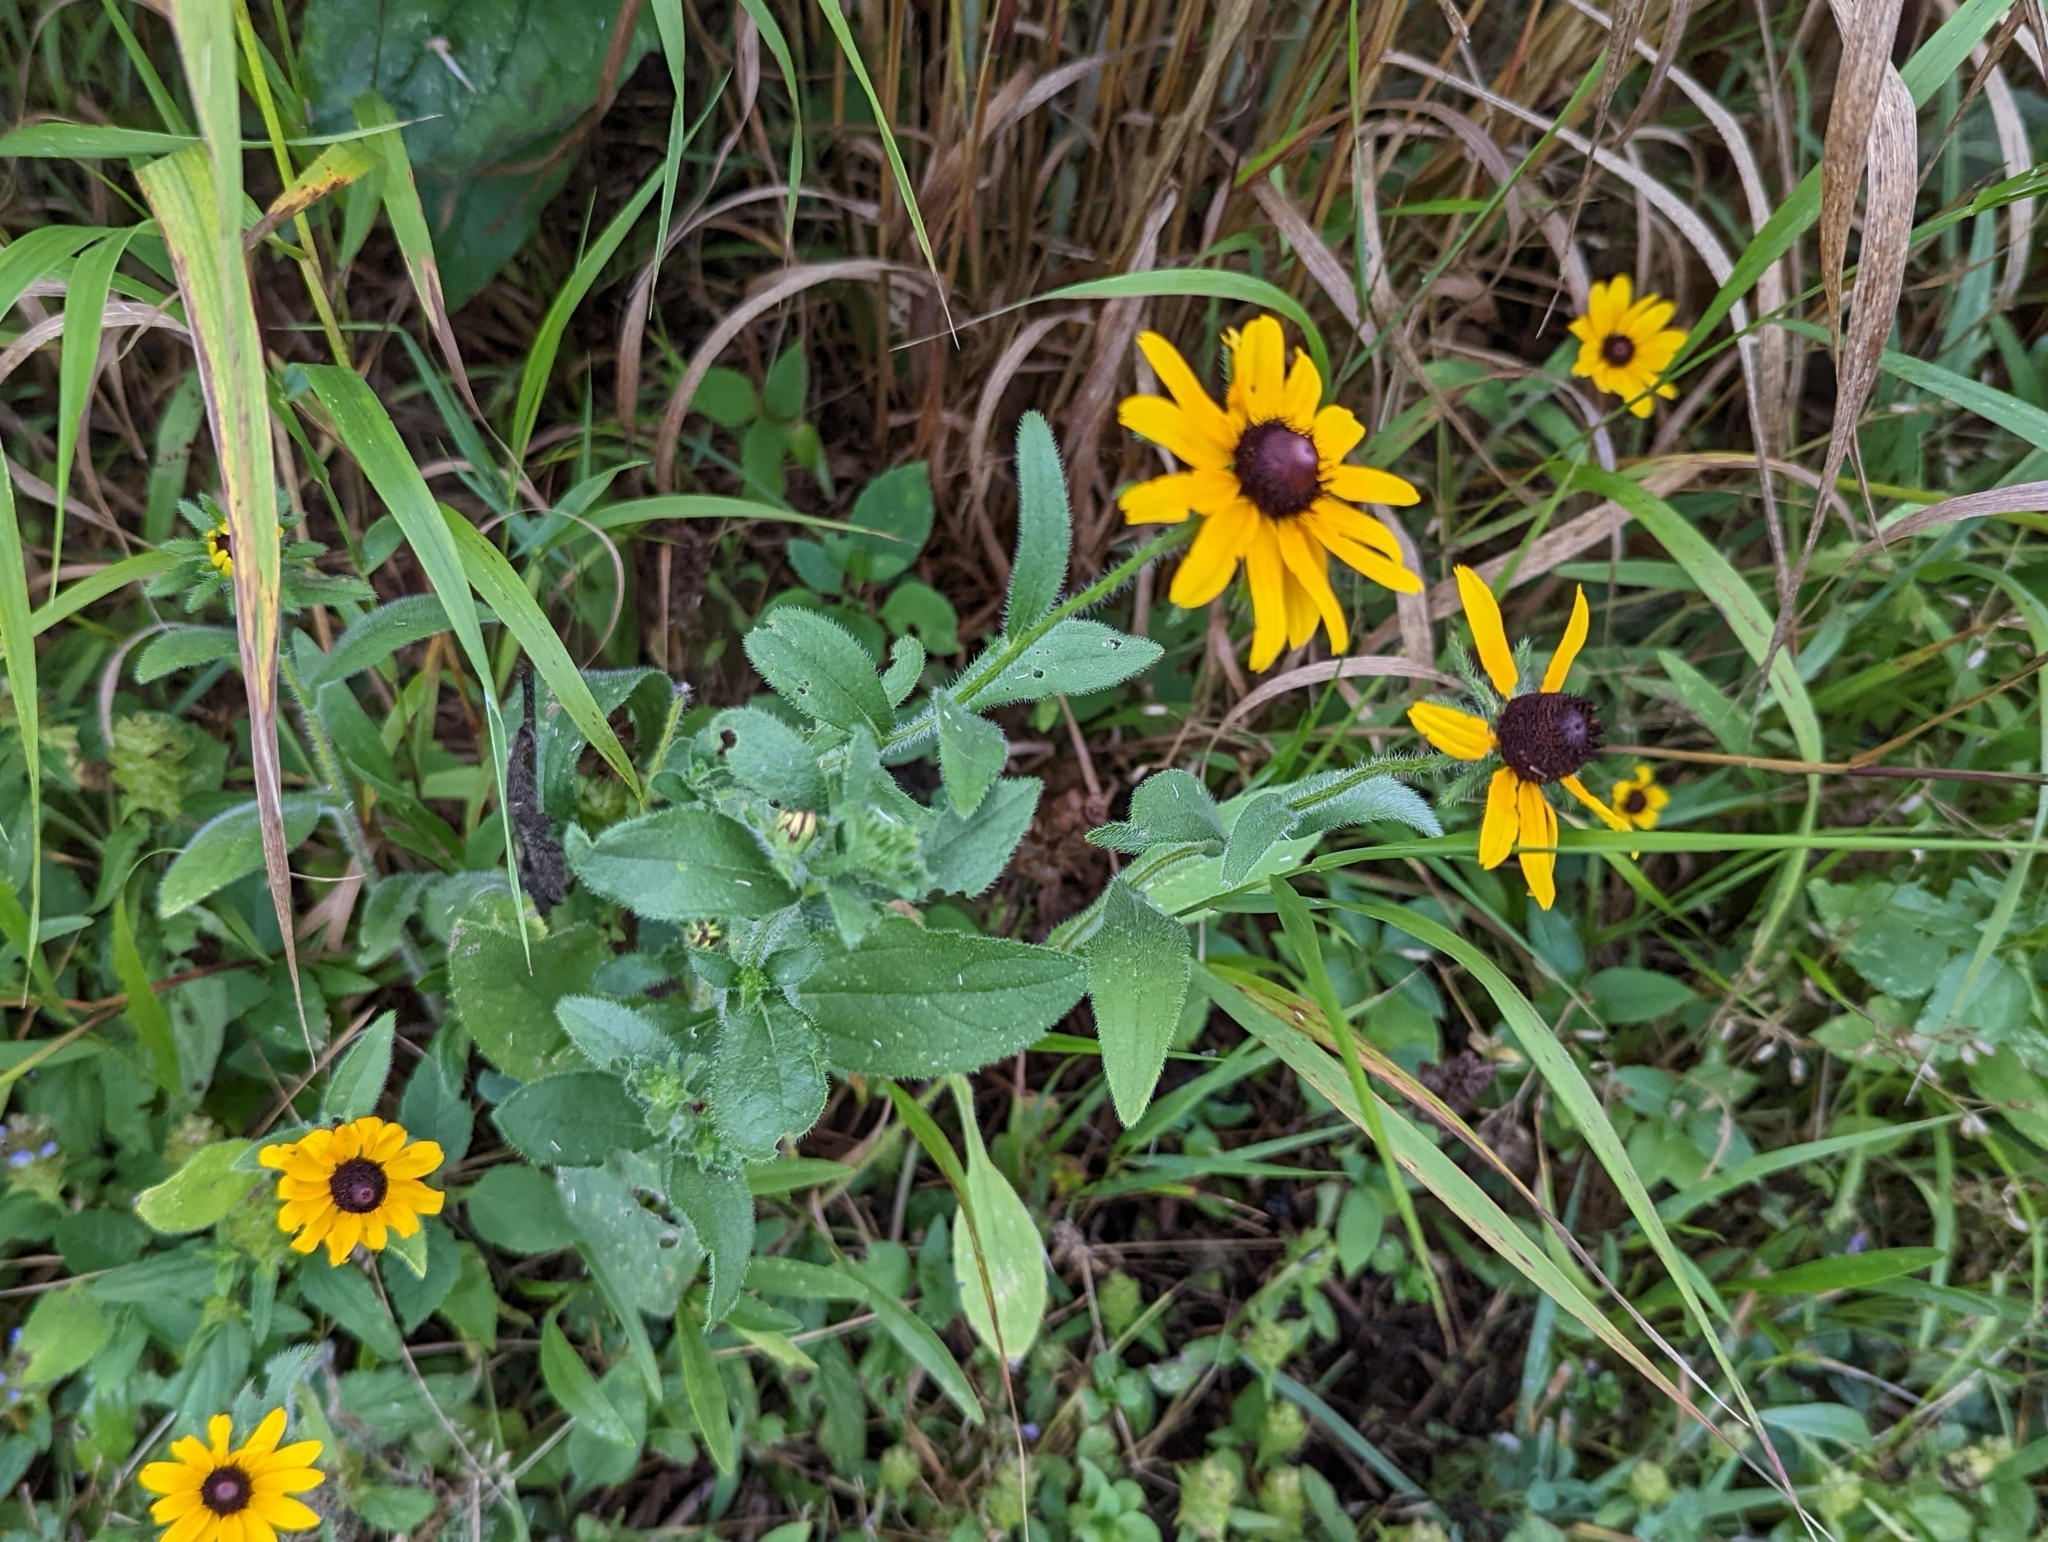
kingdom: Plantae
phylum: Tracheophyta
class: Magnoliopsida
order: Asterales
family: Asteraceae
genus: Rudbeckia
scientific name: Rudbeckia hirta
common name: Black-eyed-susan
